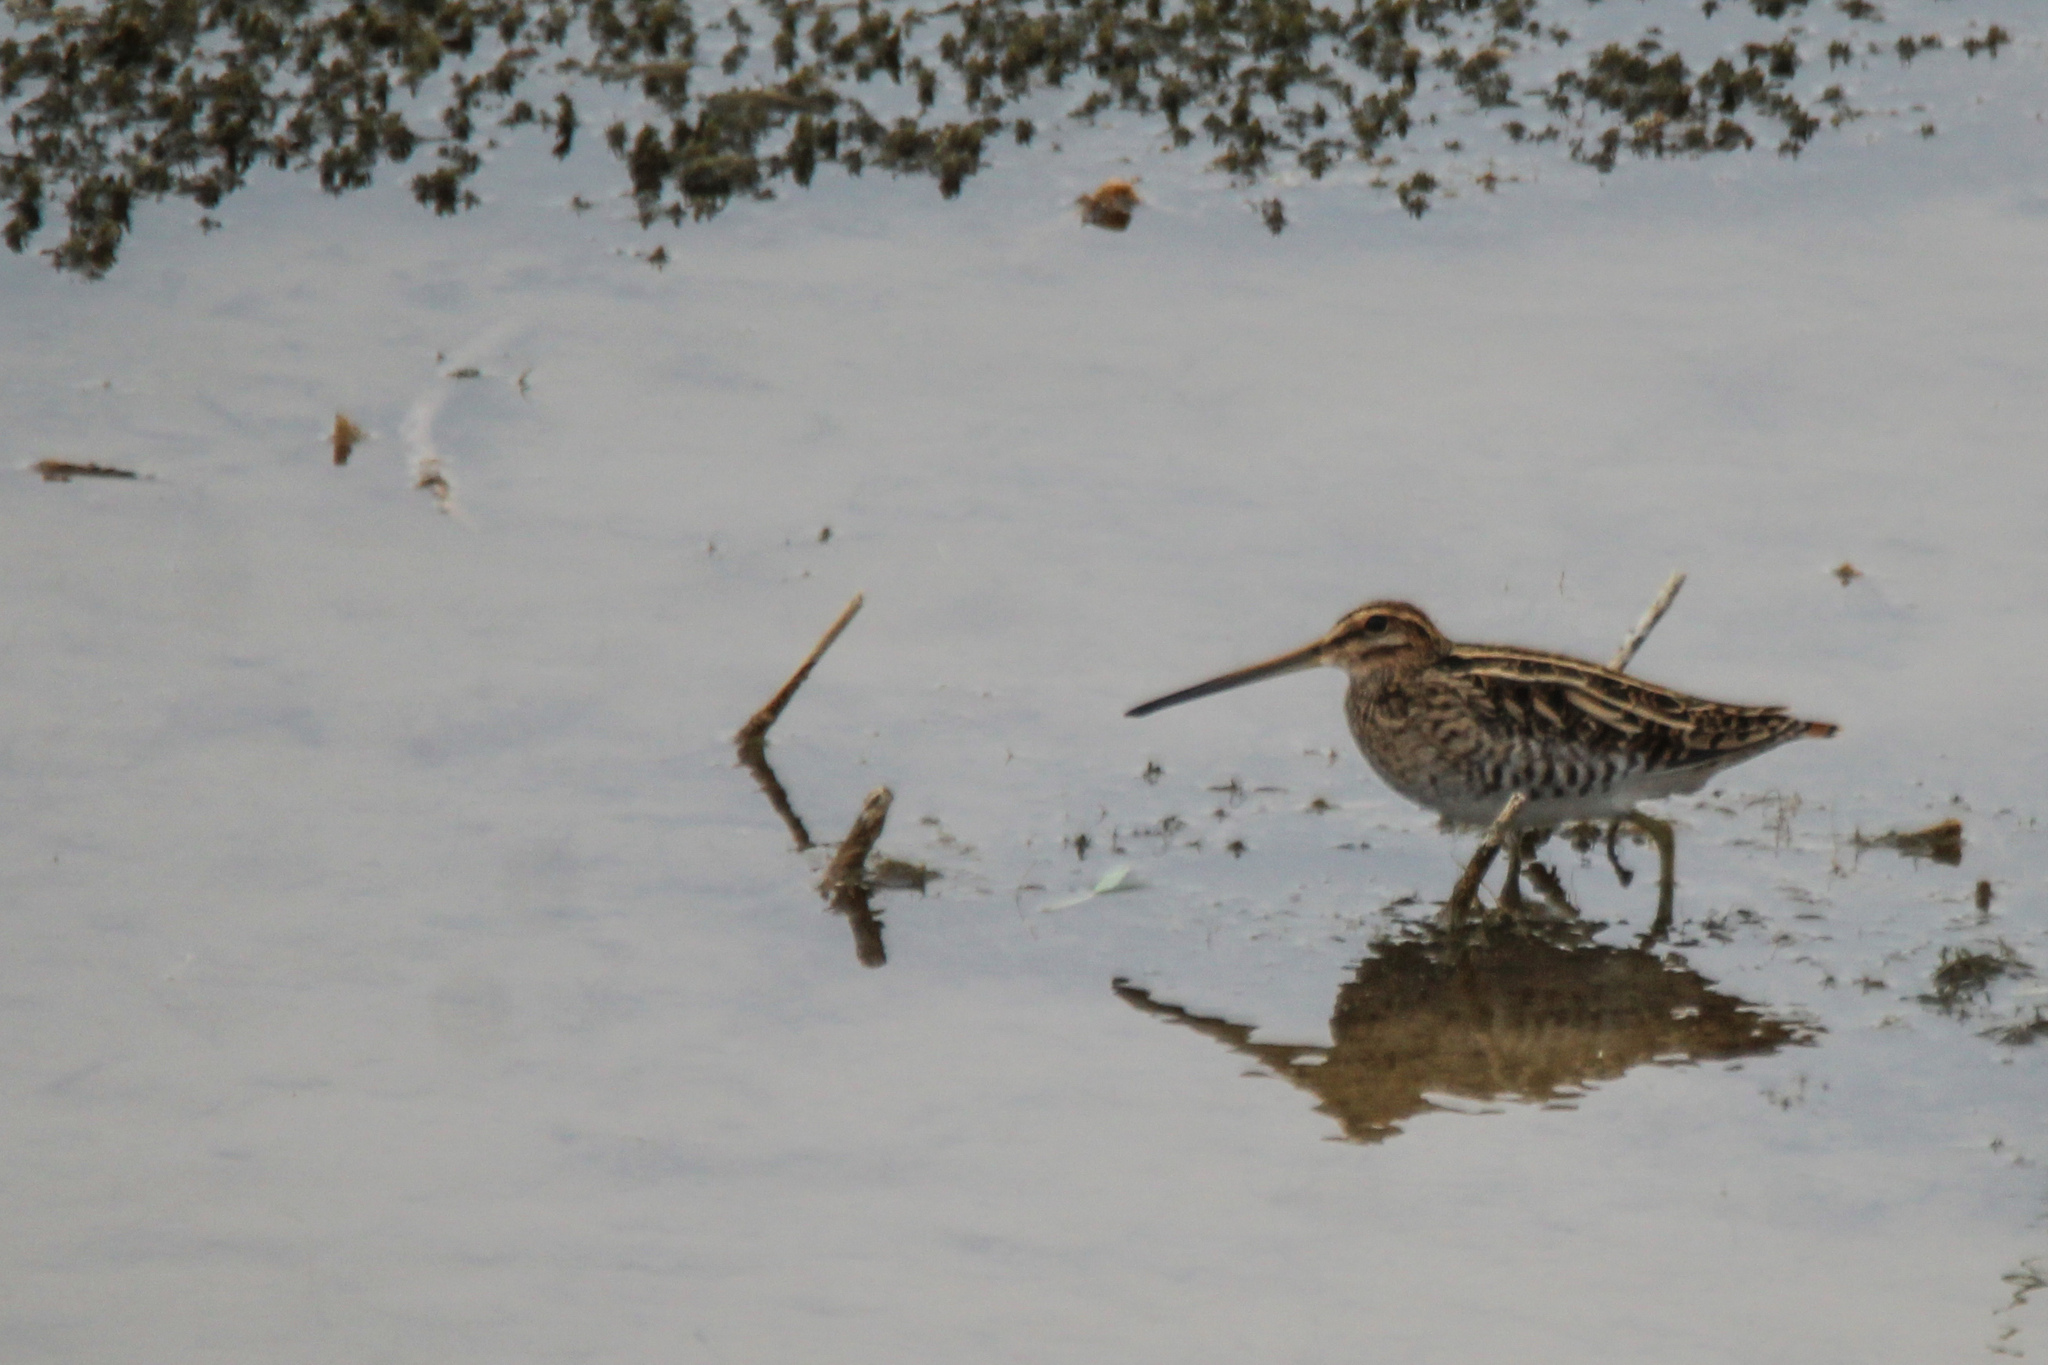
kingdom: Animalia
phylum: Chordata
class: Aves
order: Charadriiformes
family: Scolopacidae
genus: Gallinago
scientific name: Gallinago gallinago
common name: Common snipe
